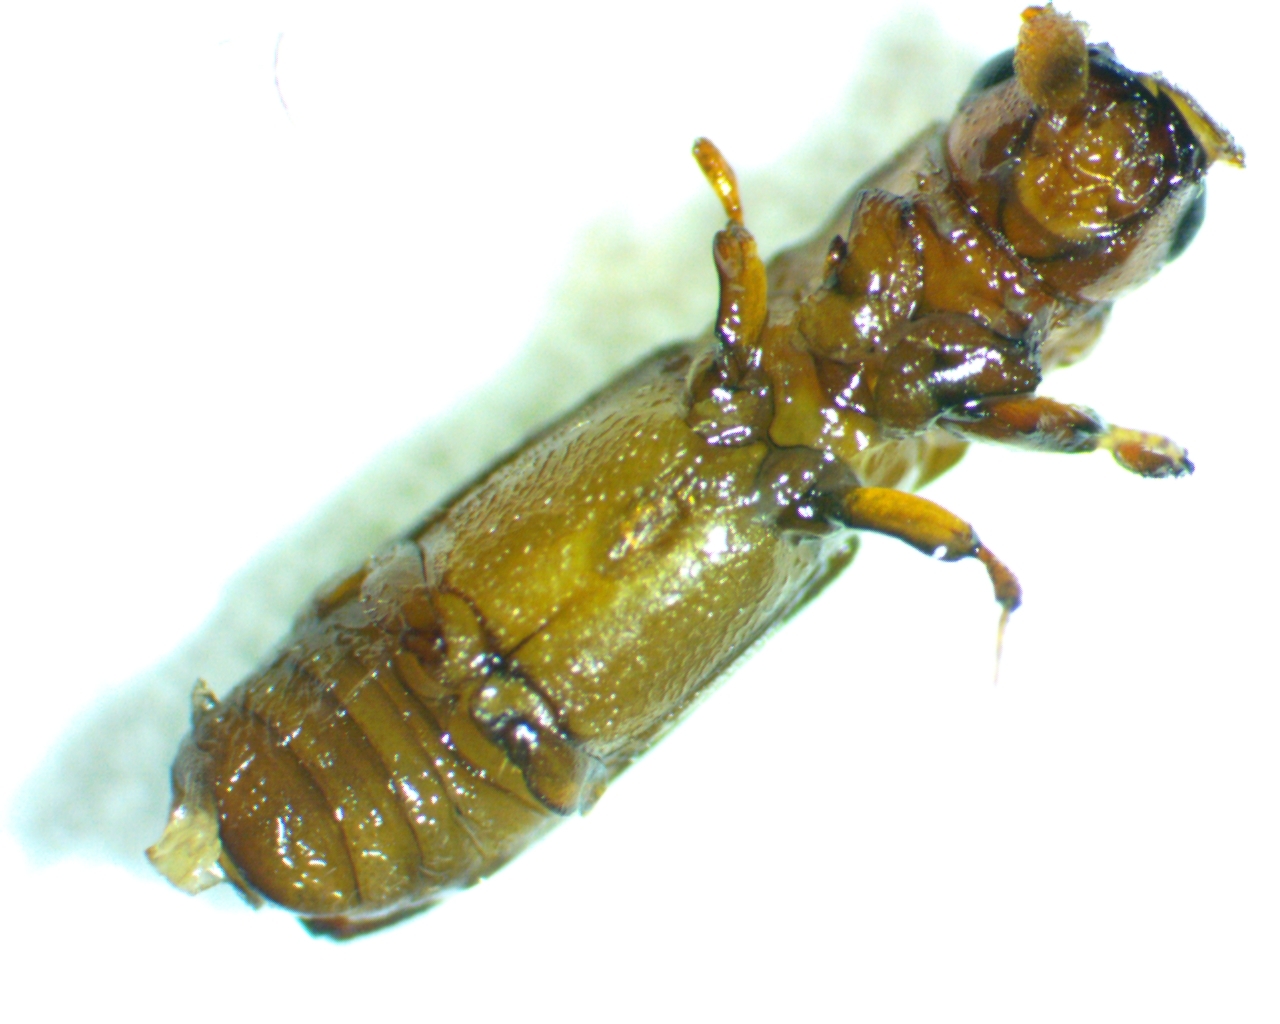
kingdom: Animalia
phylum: Arthropoda
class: Insecta
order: Coleoptera
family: Curculionidae
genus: Euplatypus
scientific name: Euplatypus compositus
